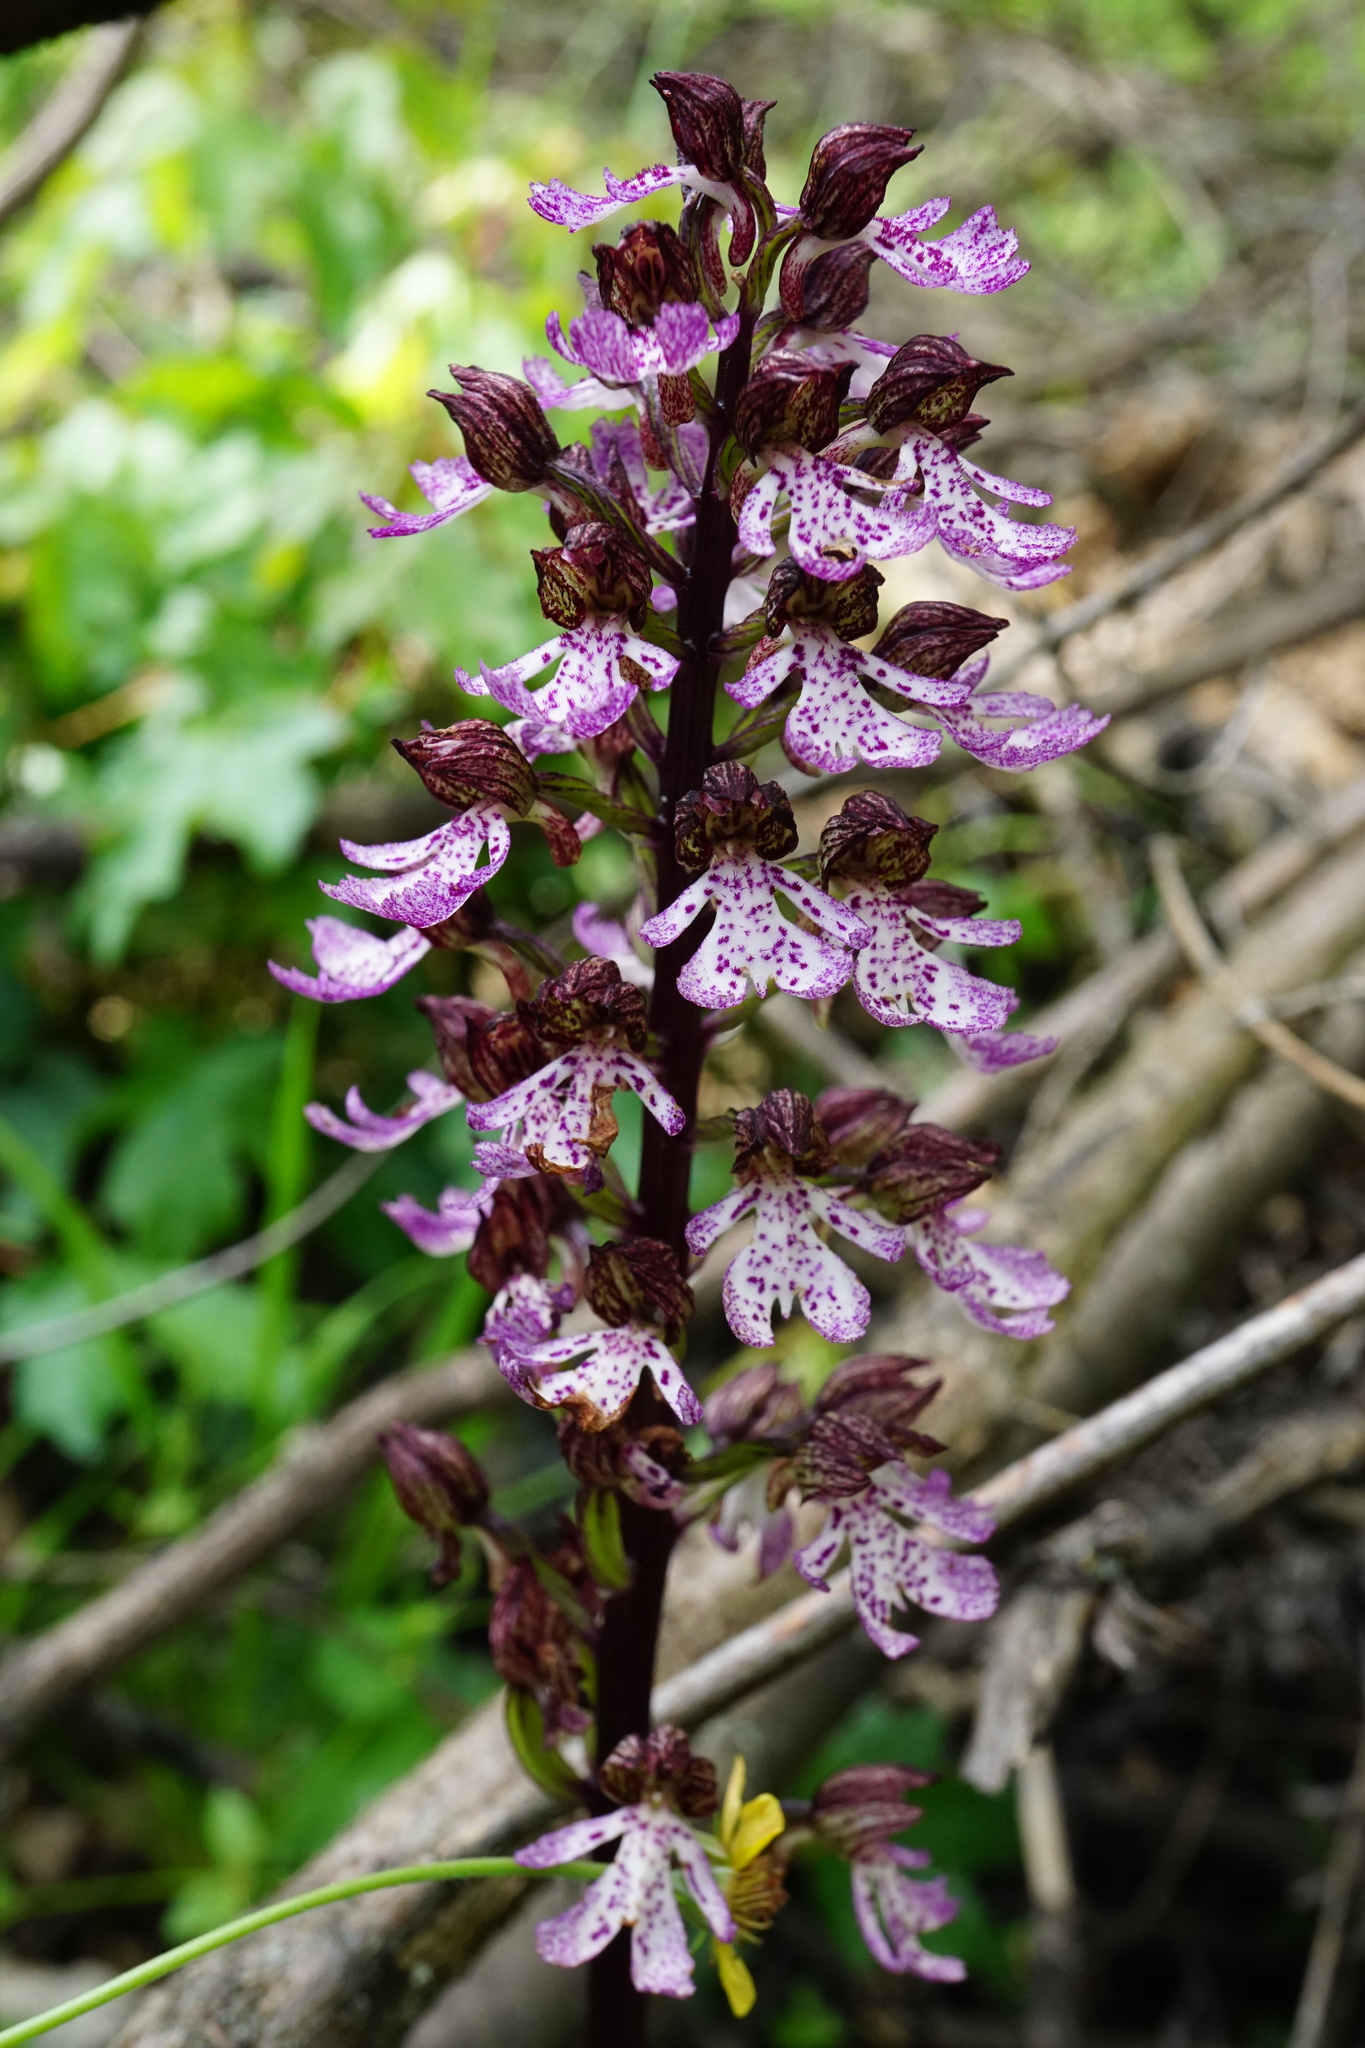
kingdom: Plantae
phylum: Tracheophyta
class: Liliopsida
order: Asparagales
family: Orchidaceae
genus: Orchis
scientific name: Orchis purpurea
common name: Lady orchid
